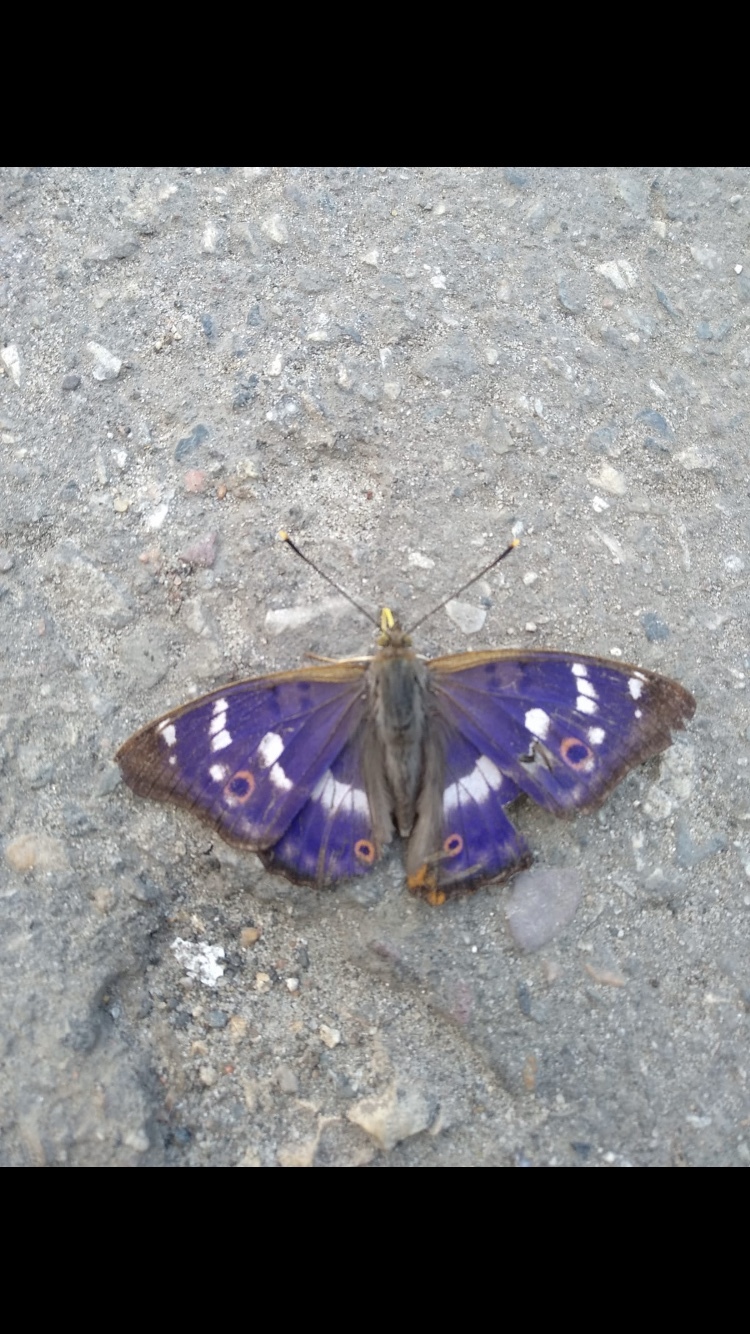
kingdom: Animalia
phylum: Arthropoda
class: Insecta
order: Lepidoptera
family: Nymphalidae
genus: Apatura
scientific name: Apatura ilia
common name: Lesser purple emperor
